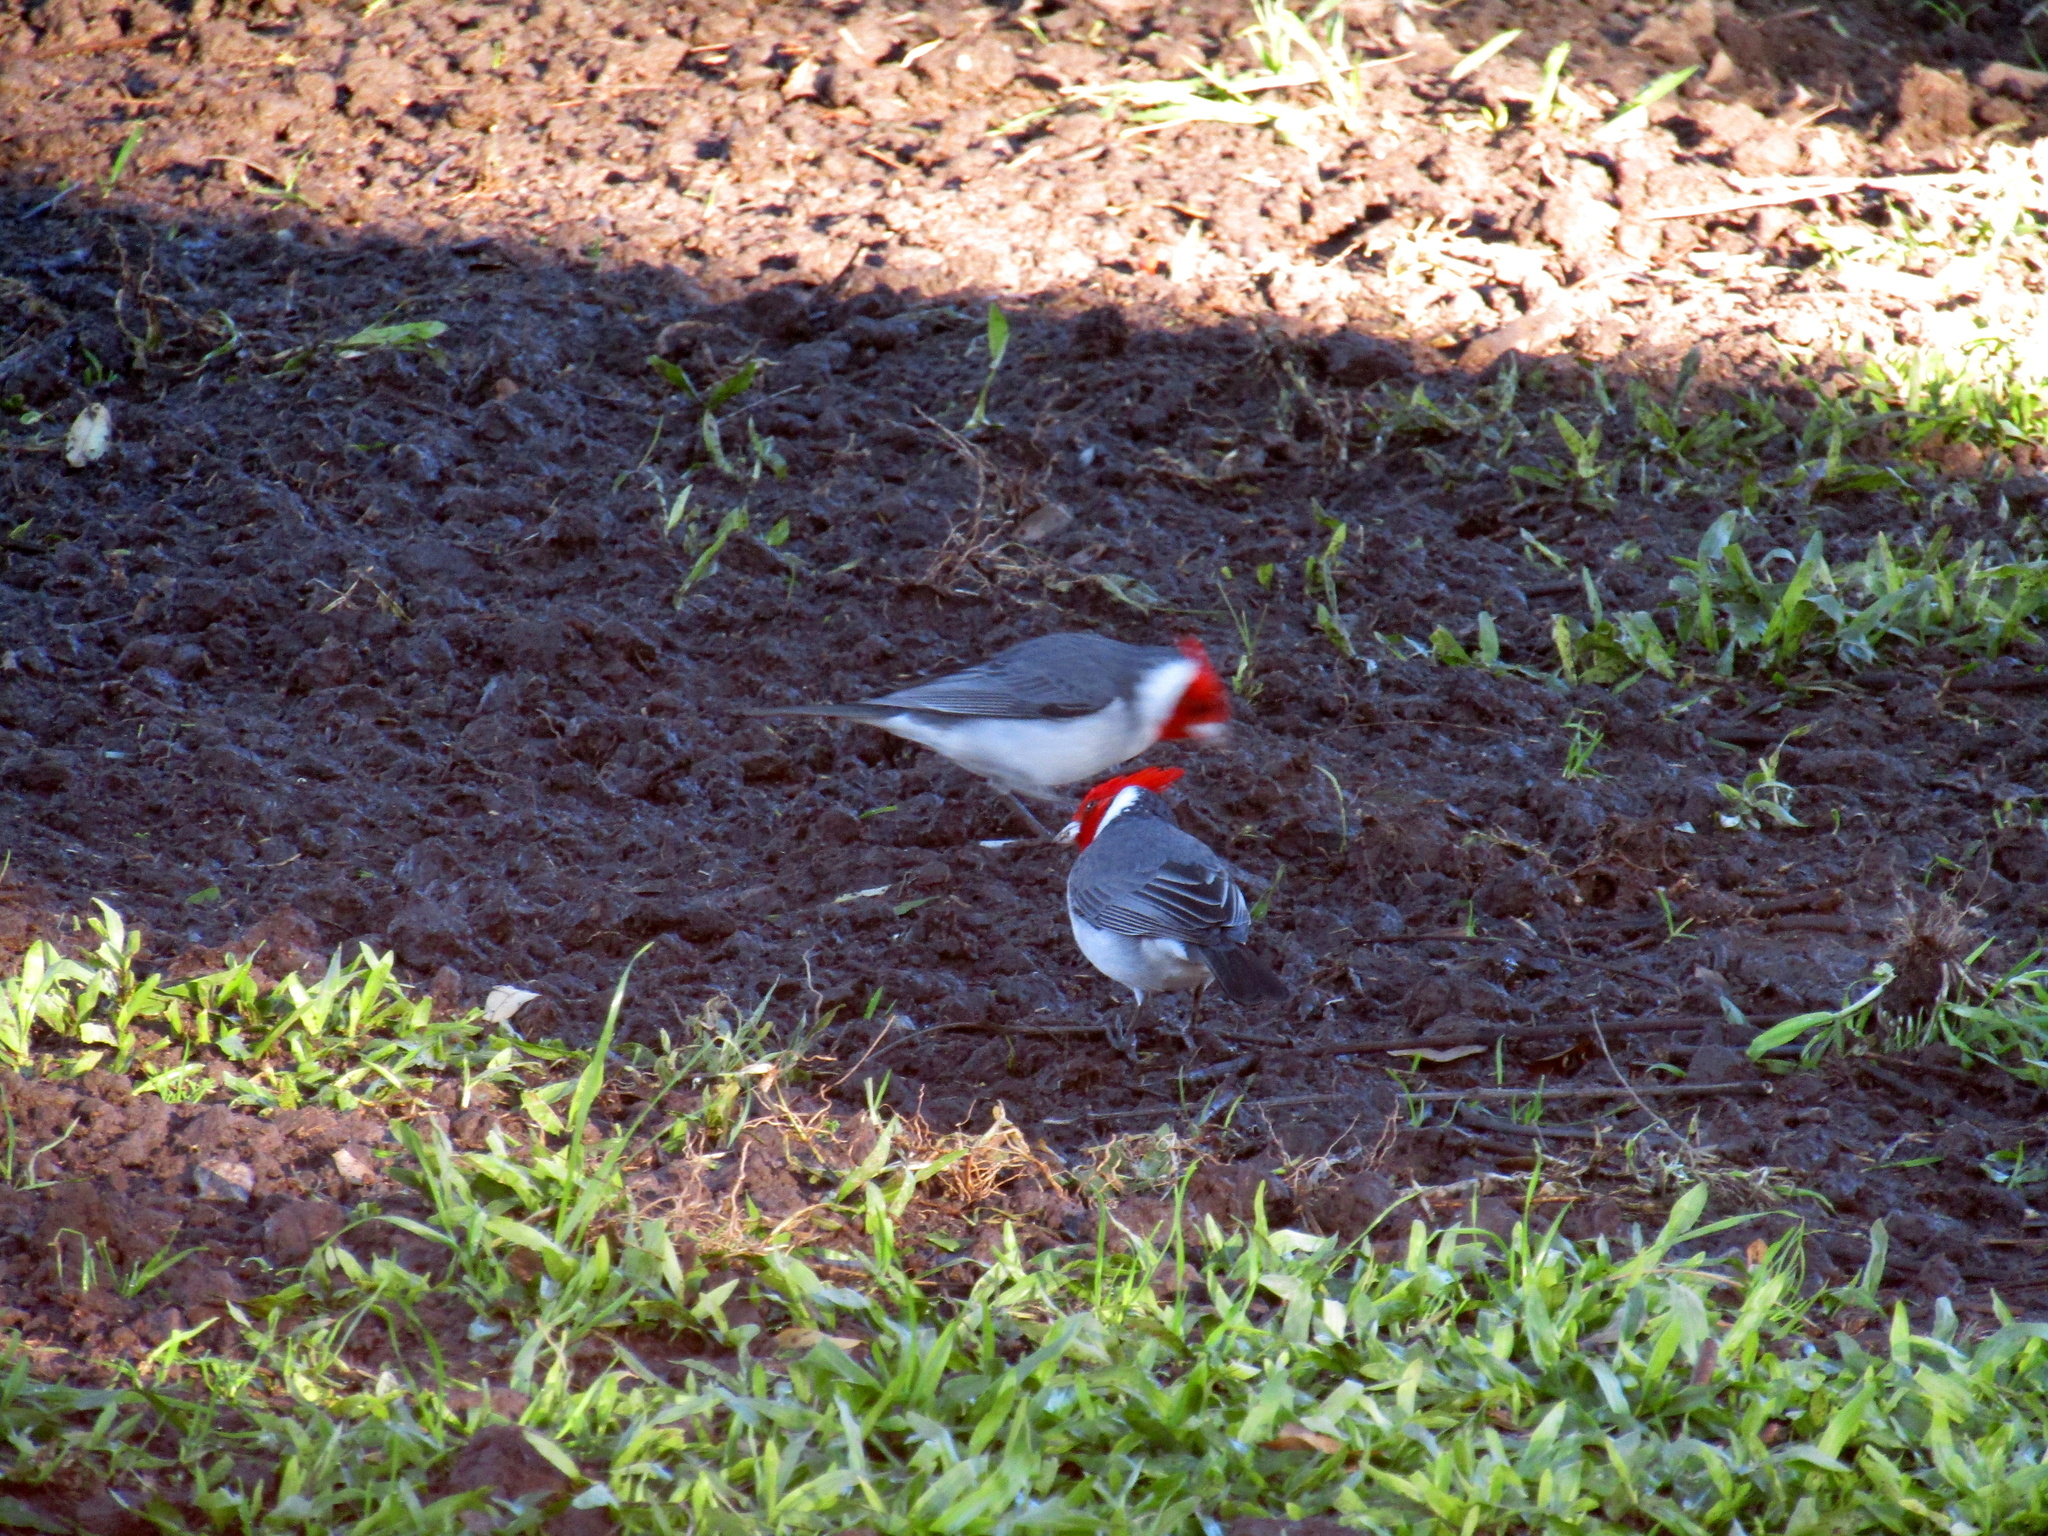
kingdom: Animalia
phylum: Chordata
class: Aves
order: Passeriformes
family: Thraupidae
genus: Paroaria
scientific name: Paroaria coronata
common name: Red-crested cardinal
